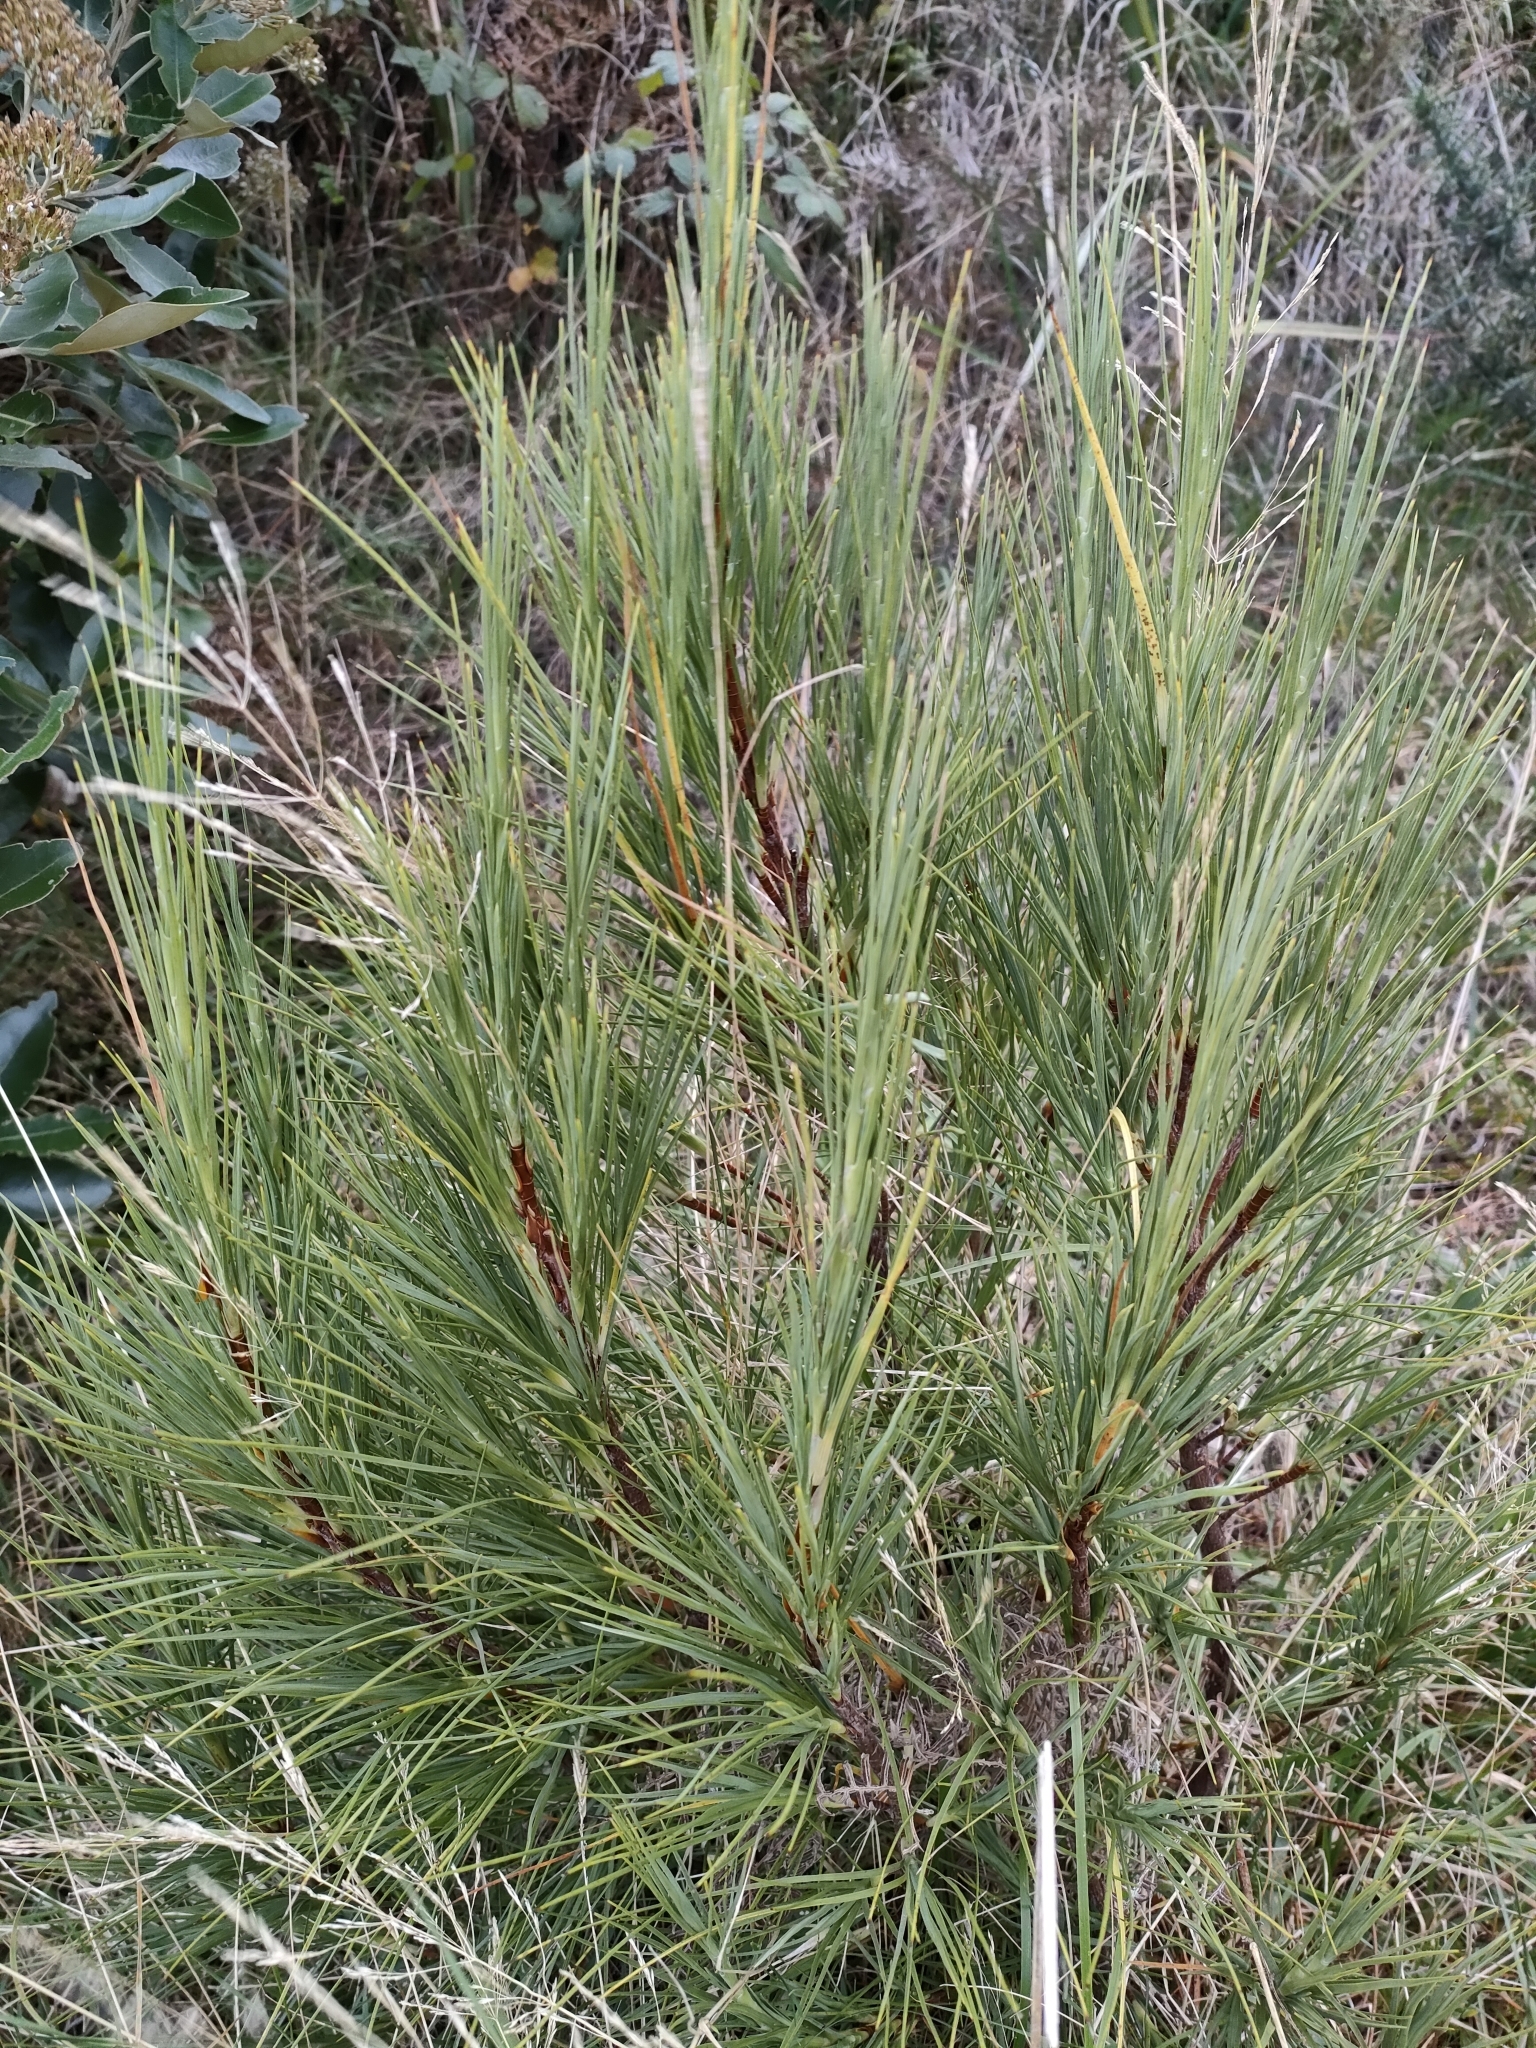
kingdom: Plantae
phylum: Tracheophyta
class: Magnoliopsida
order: Ericales
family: Ericaceae
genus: Dracophyllum
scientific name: Dracophyllum acerosum
